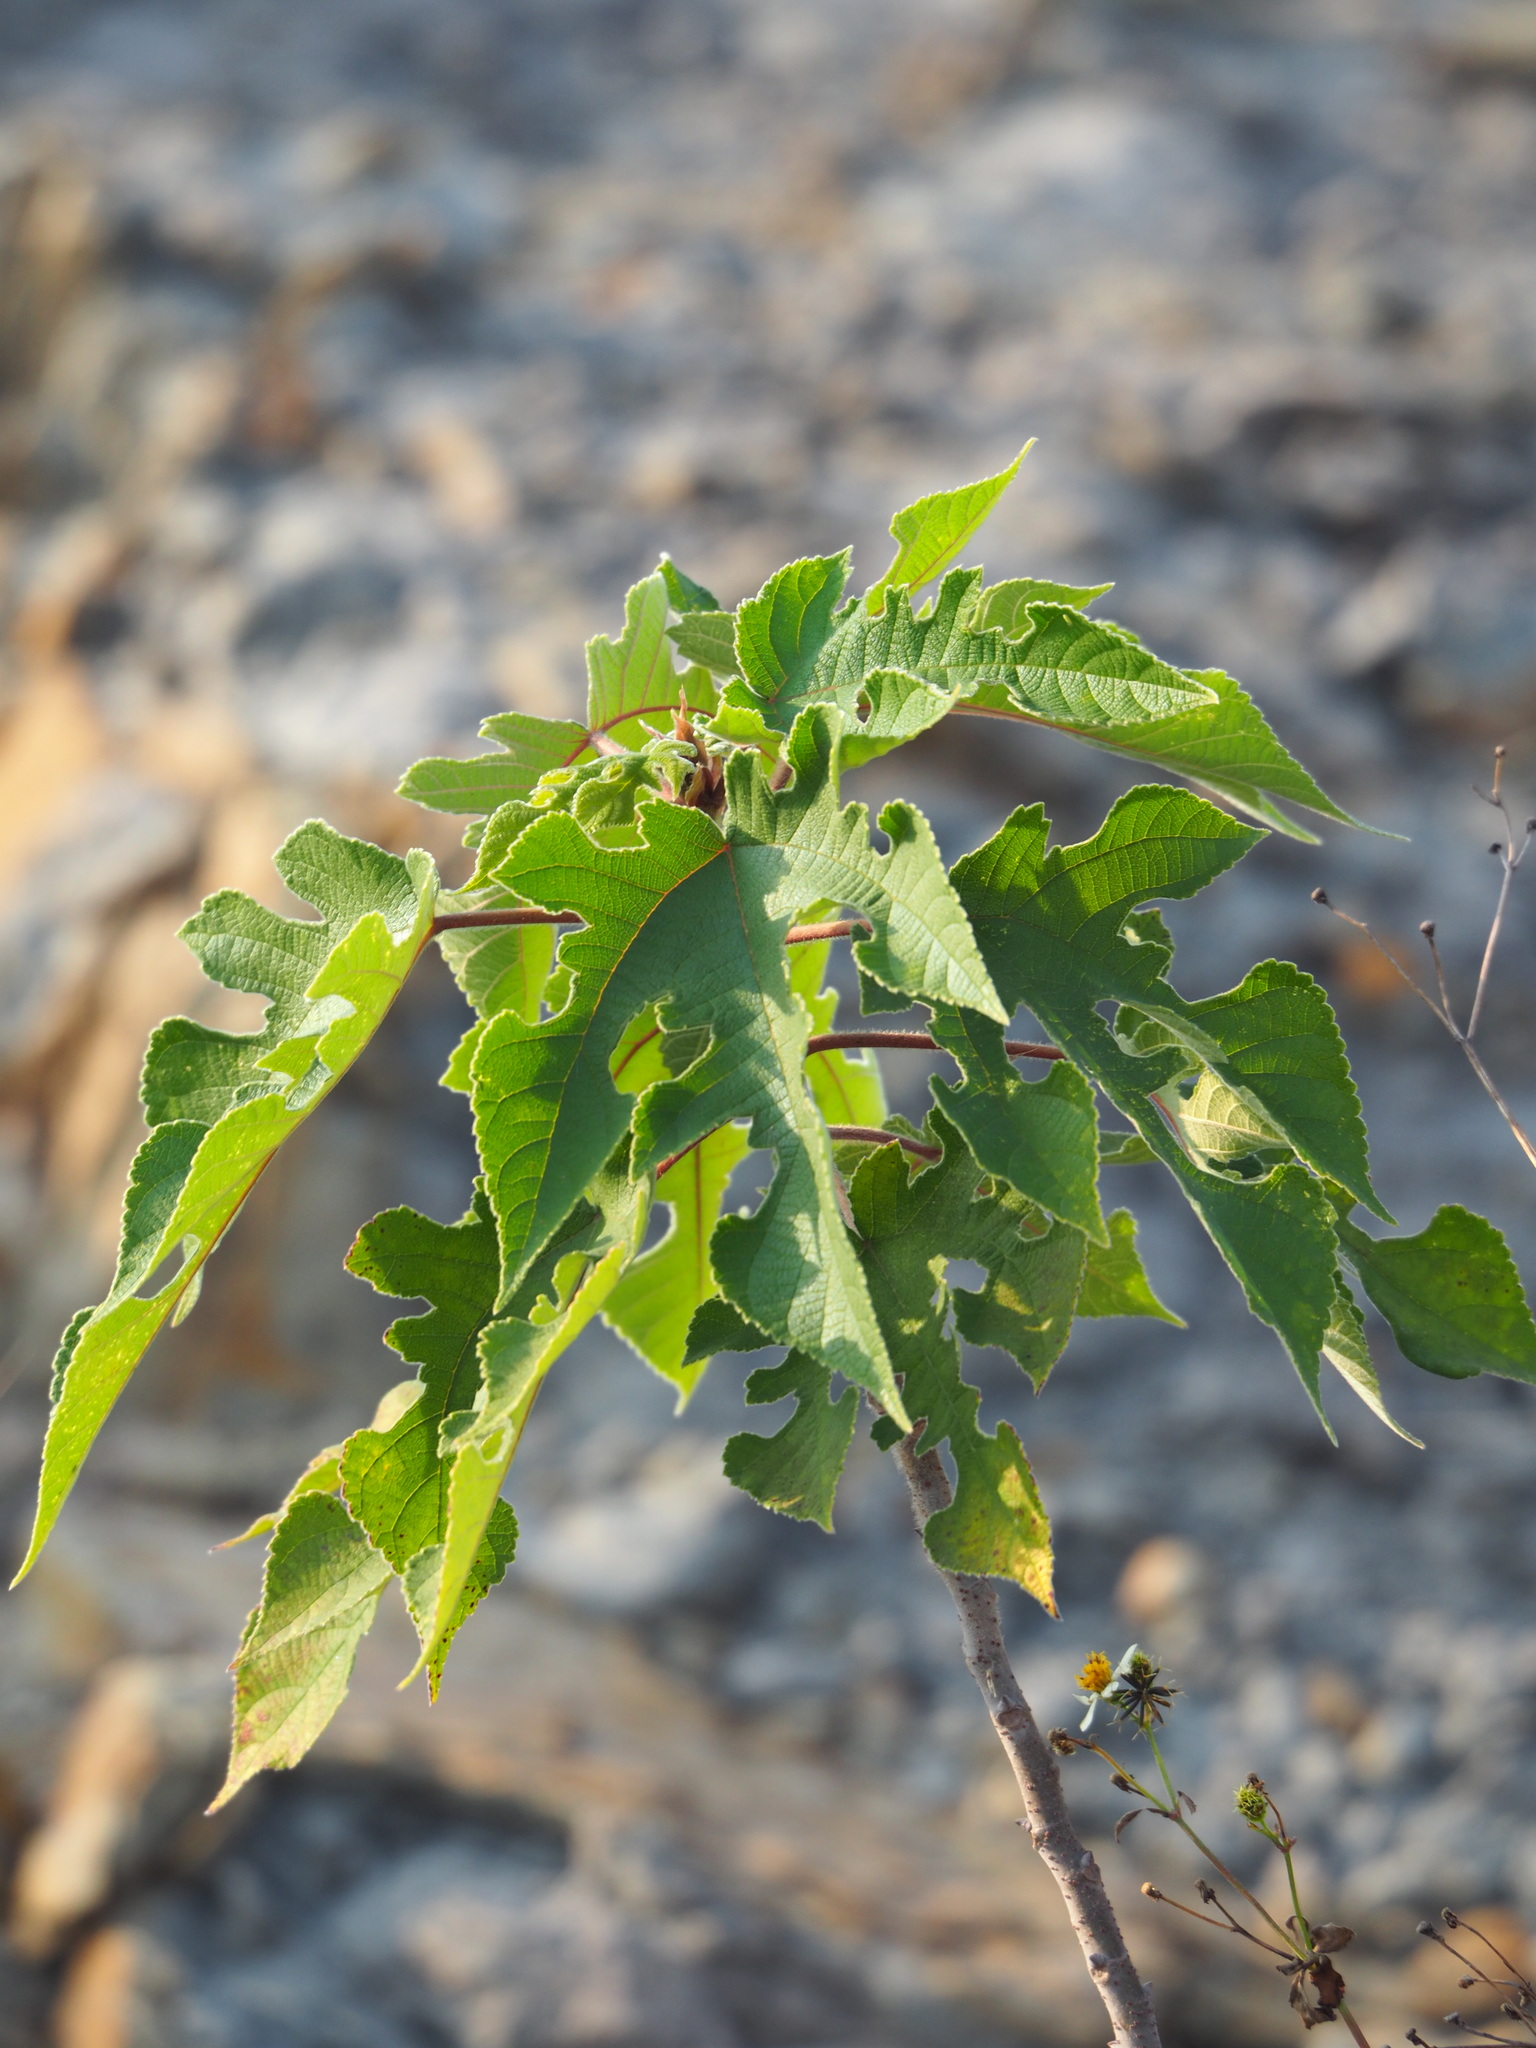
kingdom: Plantae
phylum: Tracheophyta
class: Magnoliopsida
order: Rosales
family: Moraceae
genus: Broussonetia
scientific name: Broussonetia papyrifera
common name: Paper mulberry
